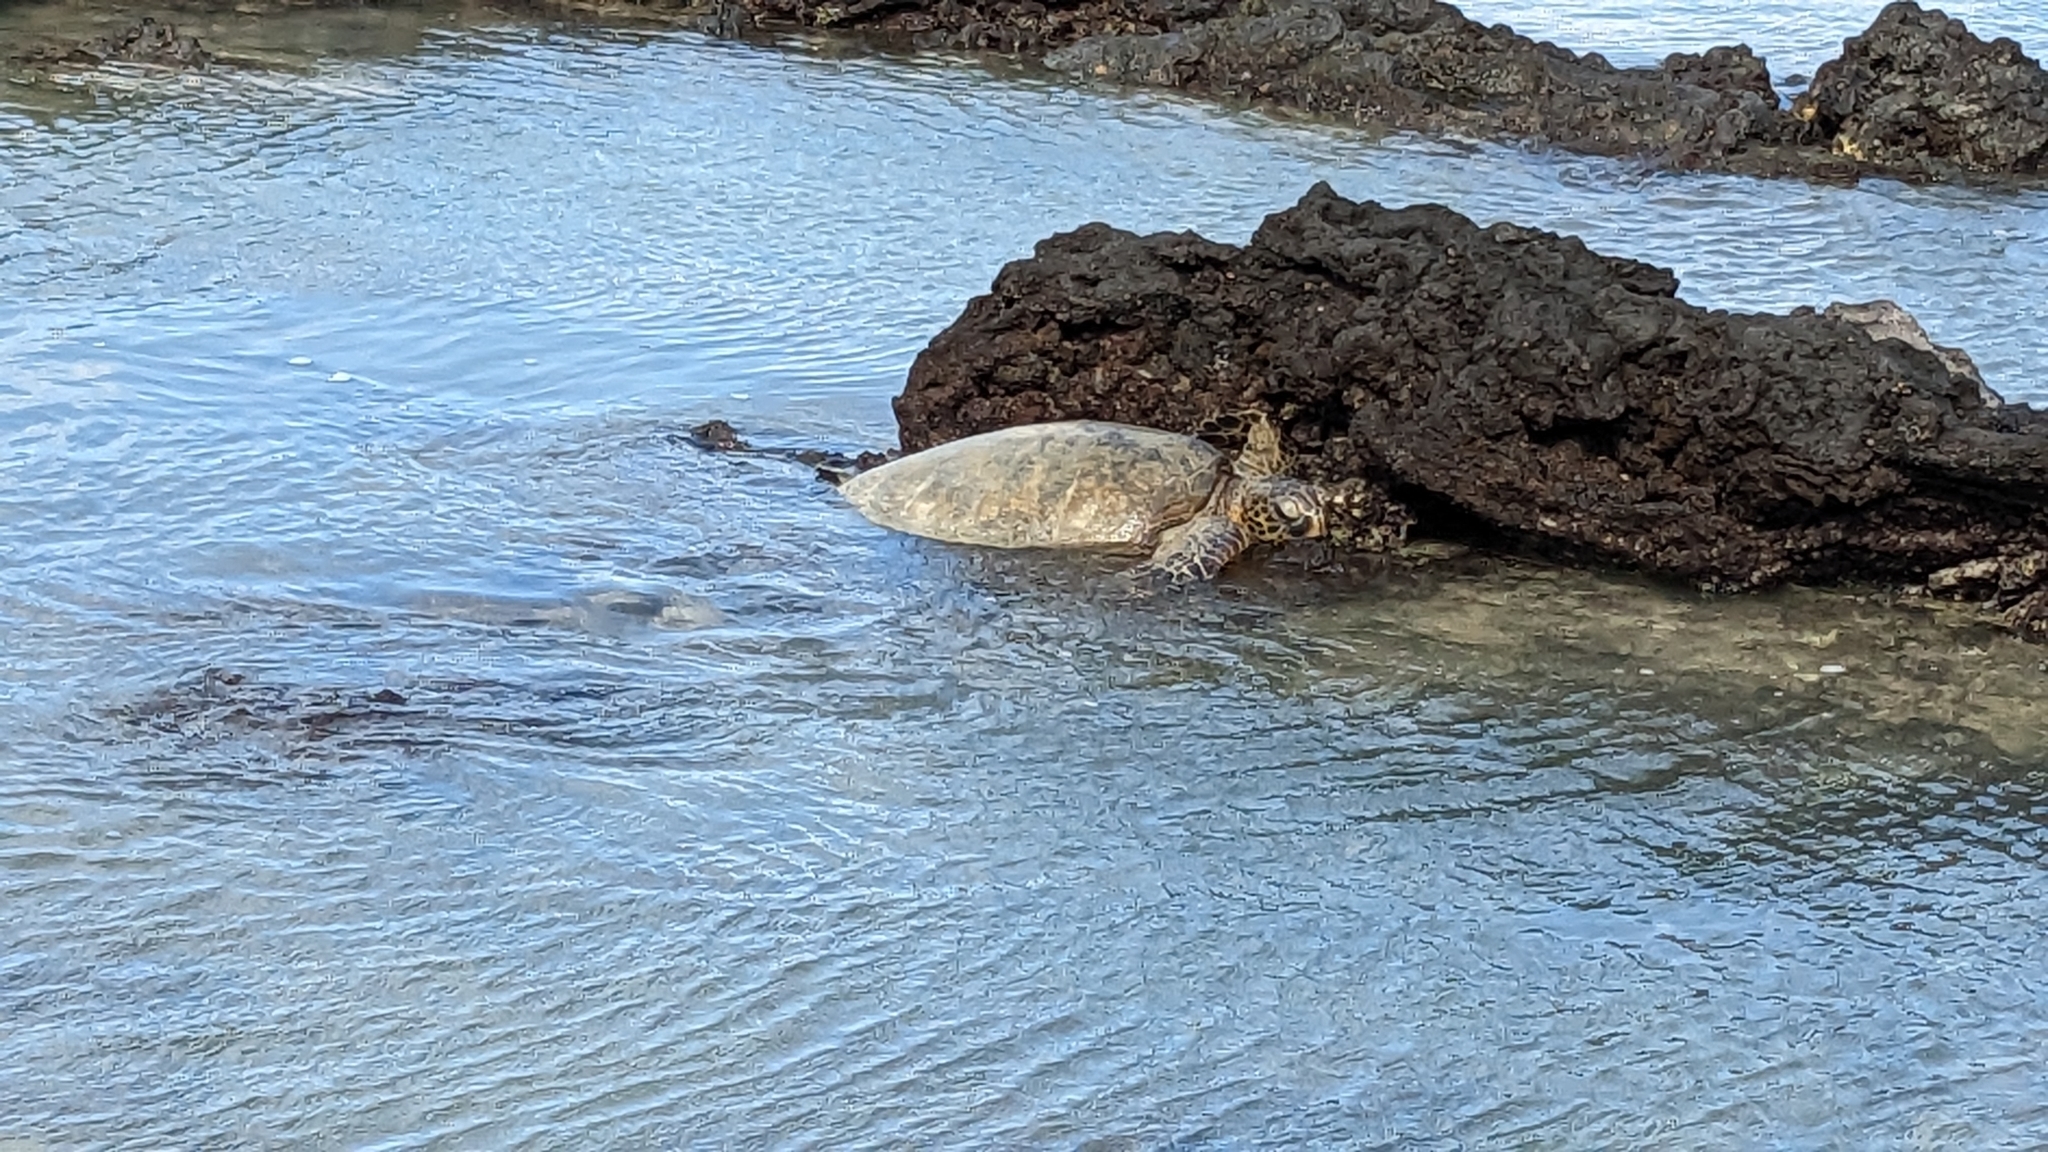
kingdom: Animalia
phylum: Chordata
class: Testudines
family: Cheloniidae
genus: Chelonia
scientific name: Chelonia mydas
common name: Green turtle
